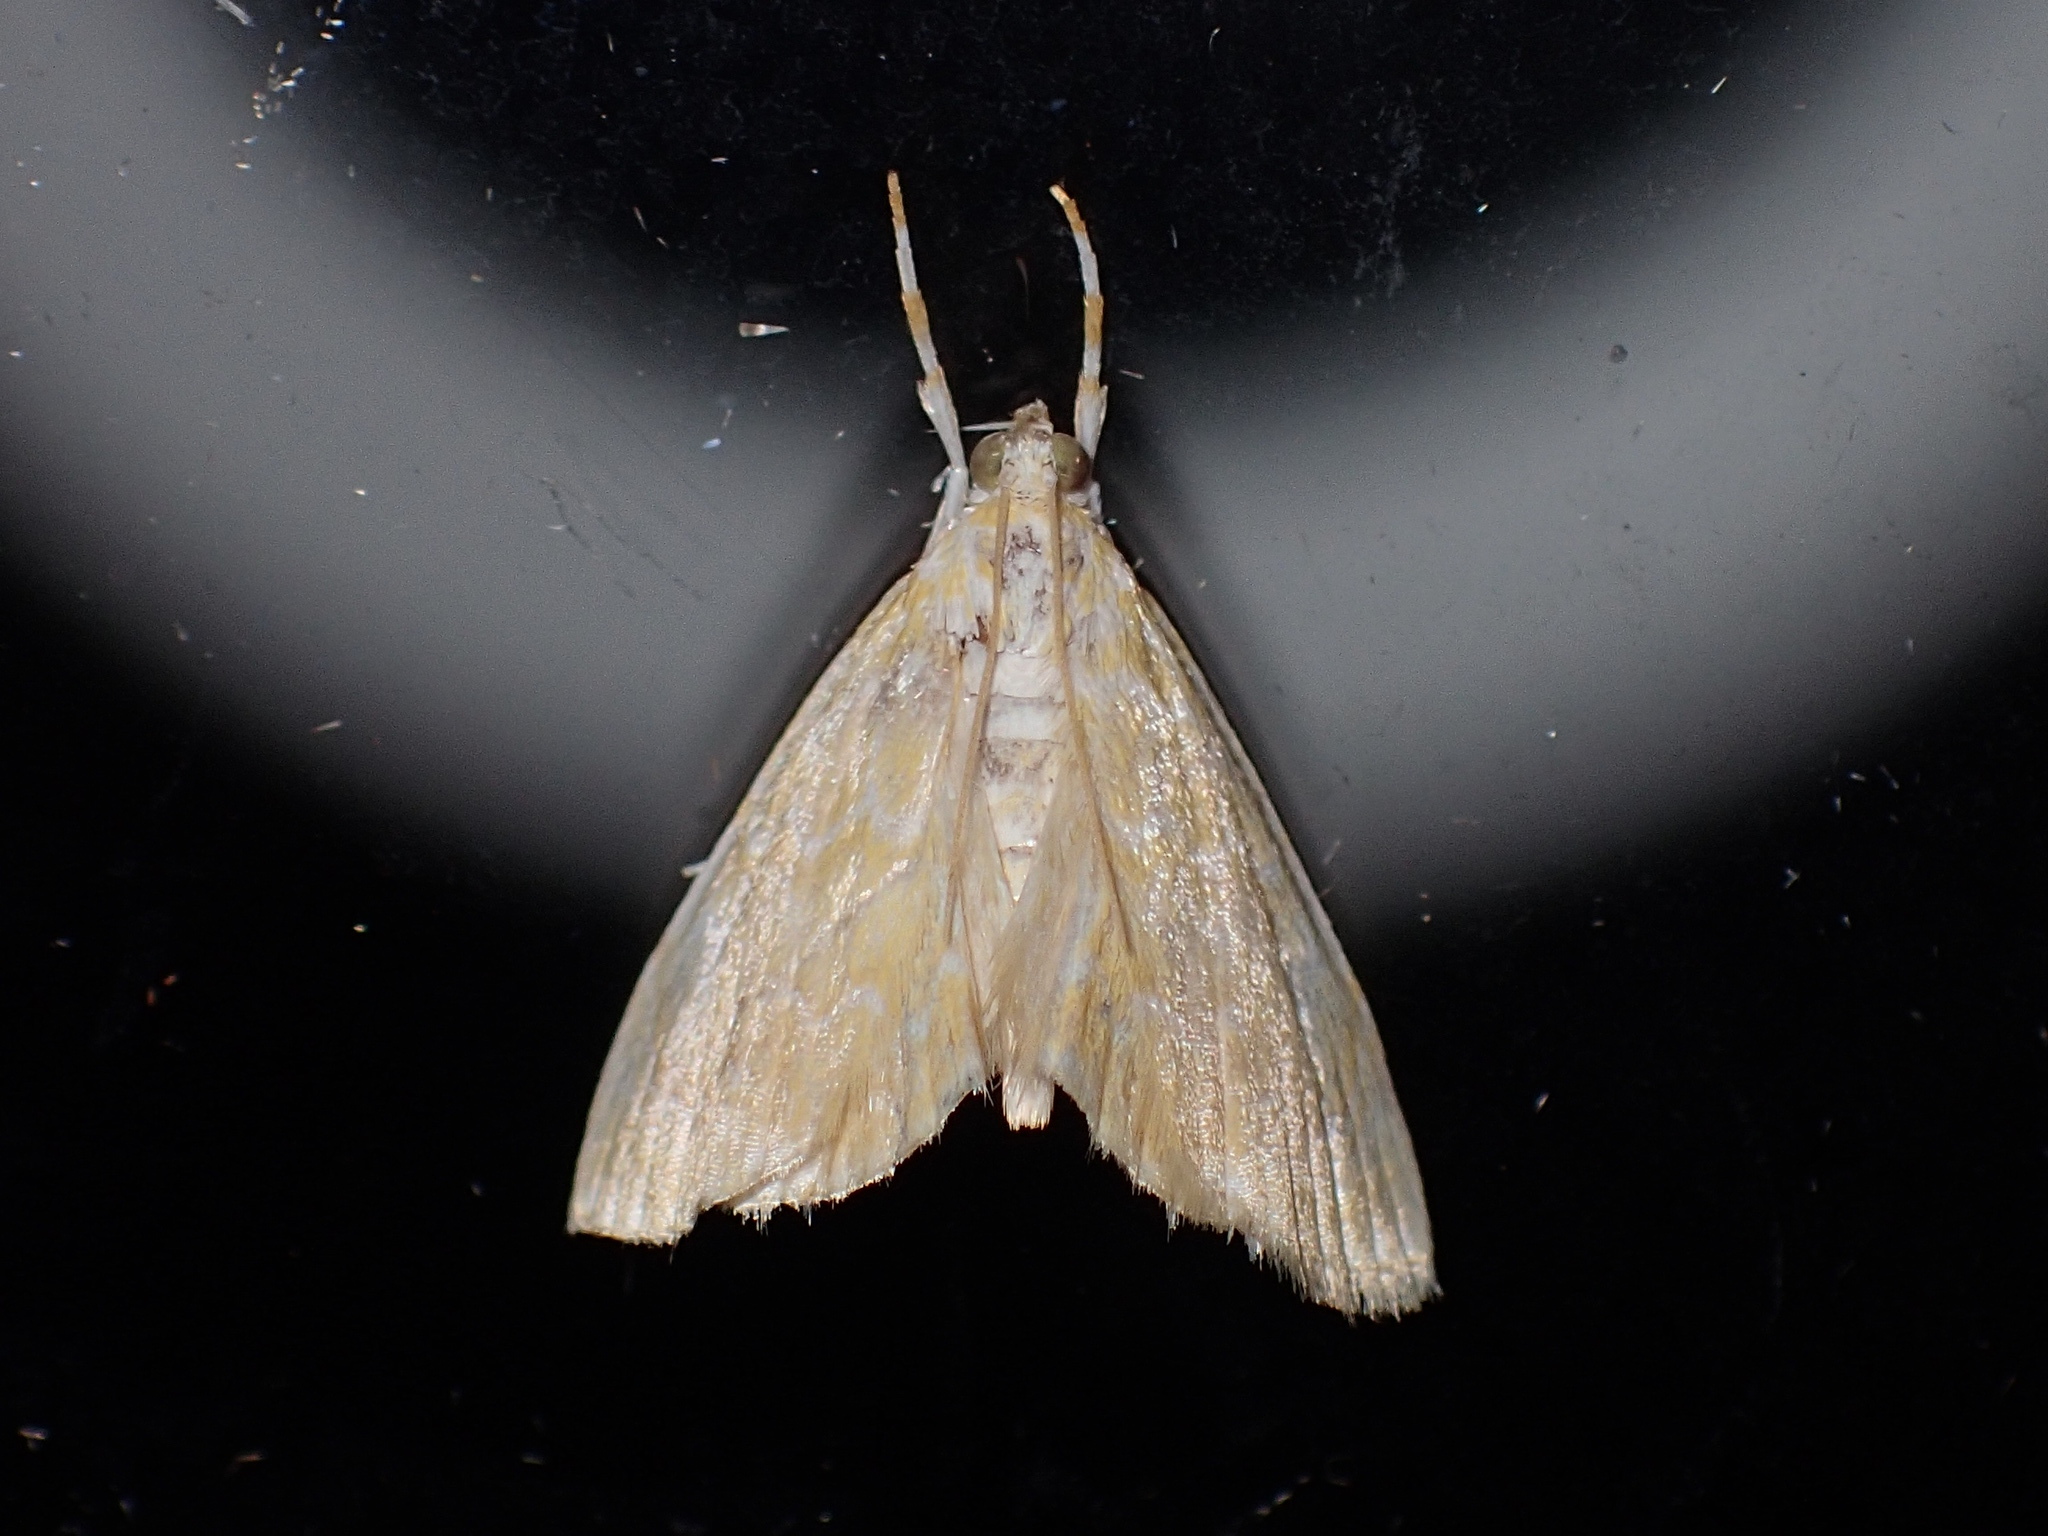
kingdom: Animalia
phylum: Arthropoda
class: Insecta
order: Lepidoptera
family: Crambidae
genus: Glaphyria
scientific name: Glaphyria glaphyralis
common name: Common glaphyria moth
